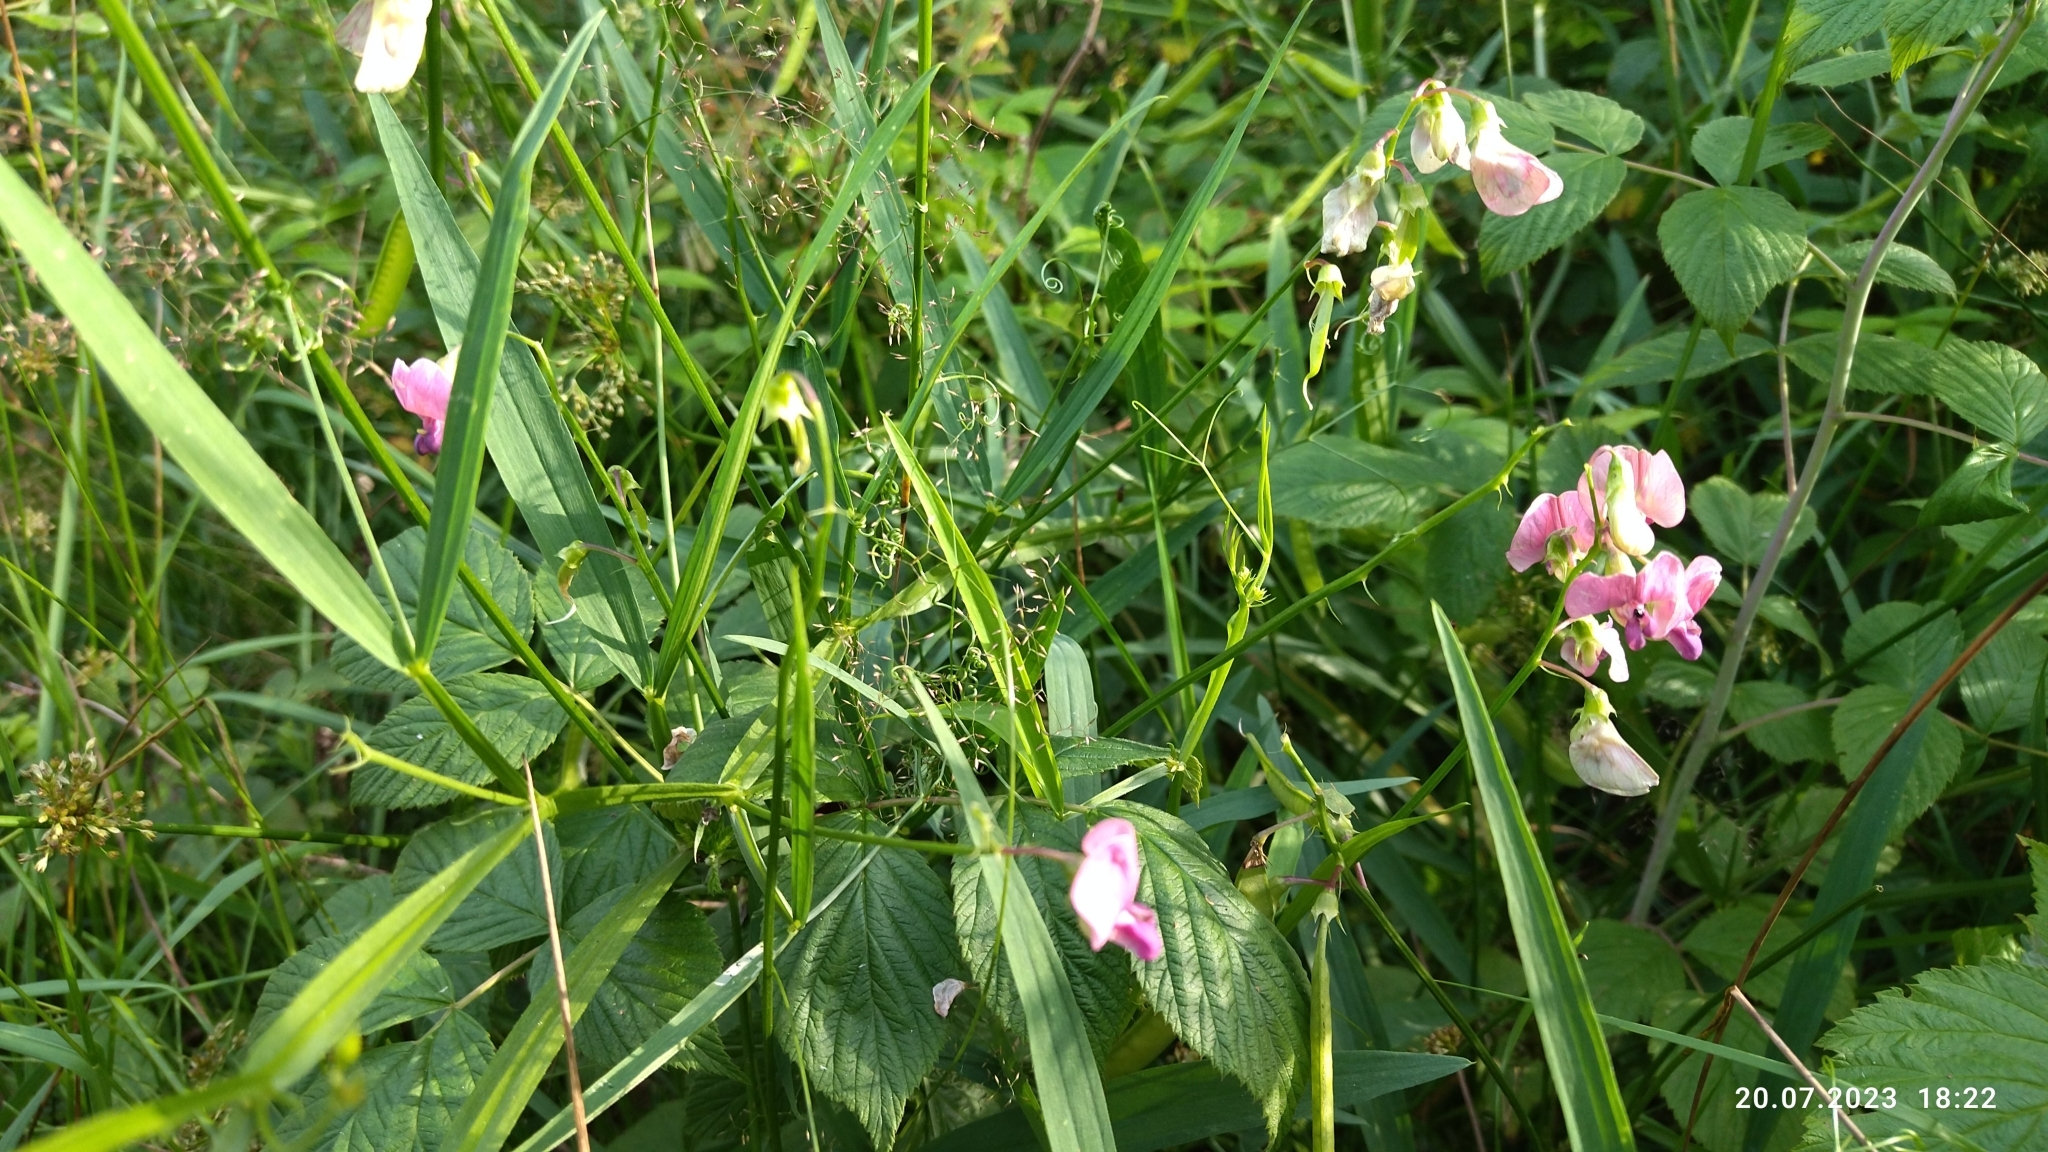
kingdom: Plantae
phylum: Tracheophyta
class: Magnoliopsida
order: Fabales
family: Fabaceae
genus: Lathyrus
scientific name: Lathyrus sylvestris
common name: Flat pea
